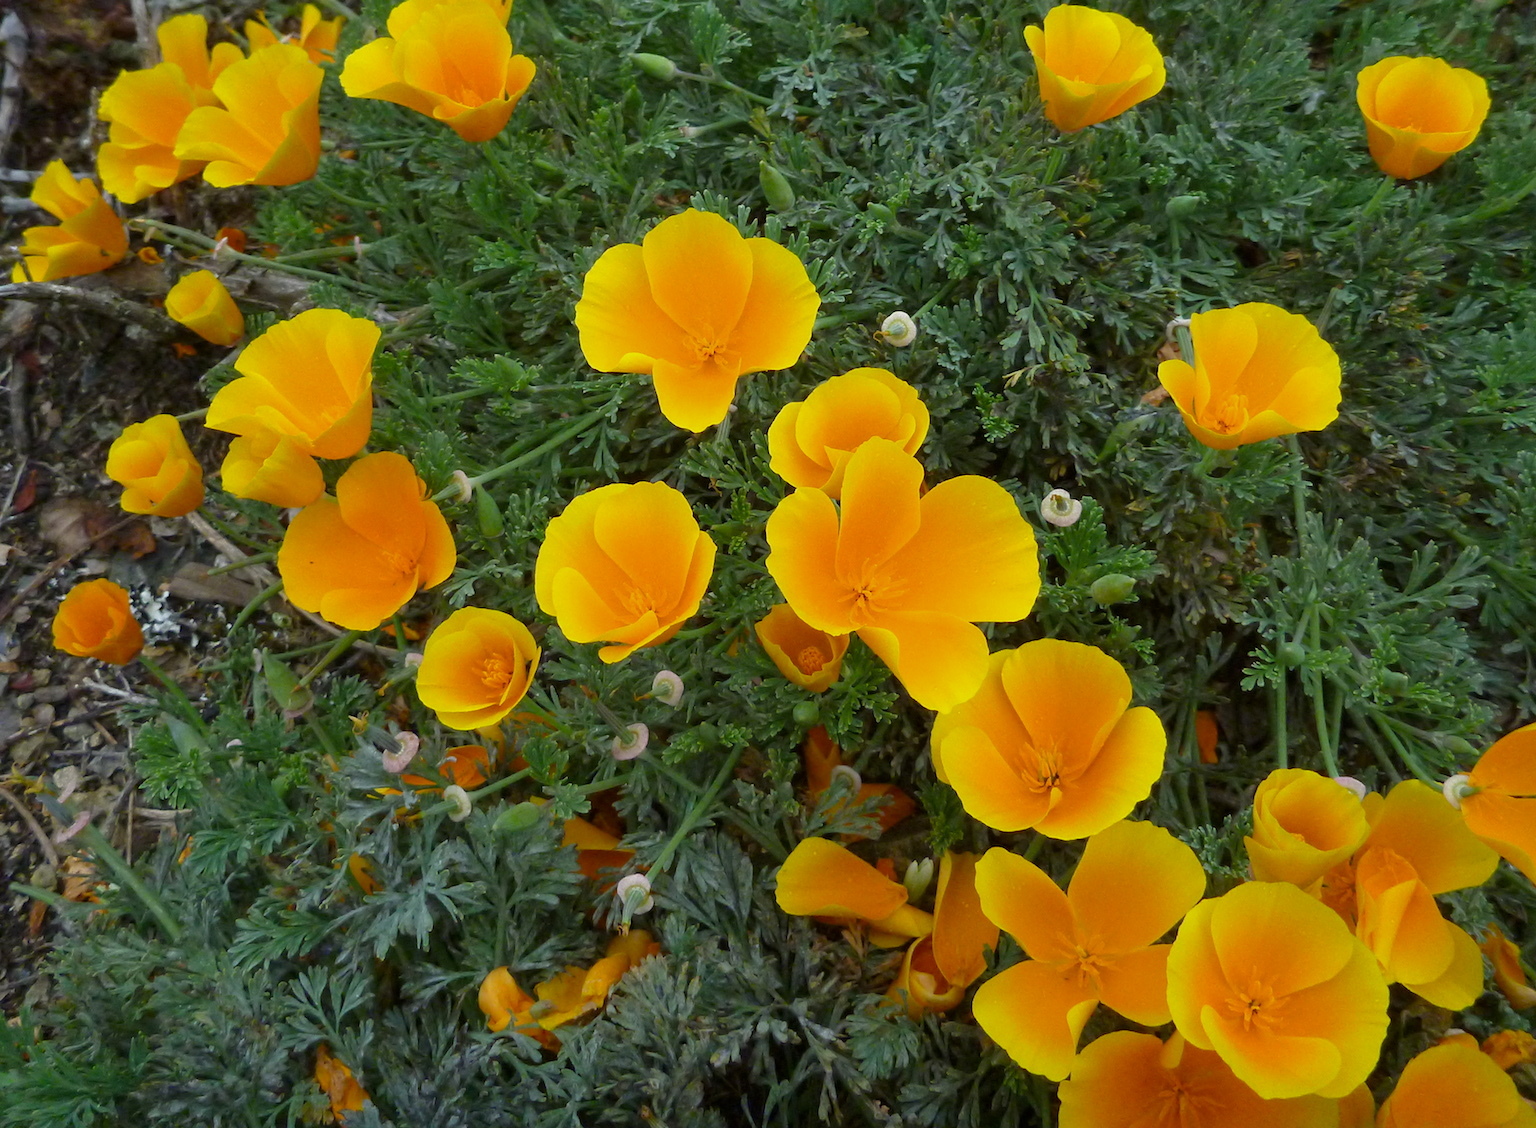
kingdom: Plantae
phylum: Tracheophyta
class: Magnoliopsida
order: Ranunculales
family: Papaveraceae
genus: Eschscholzia
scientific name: Eschscholzia californica
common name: California poppy
